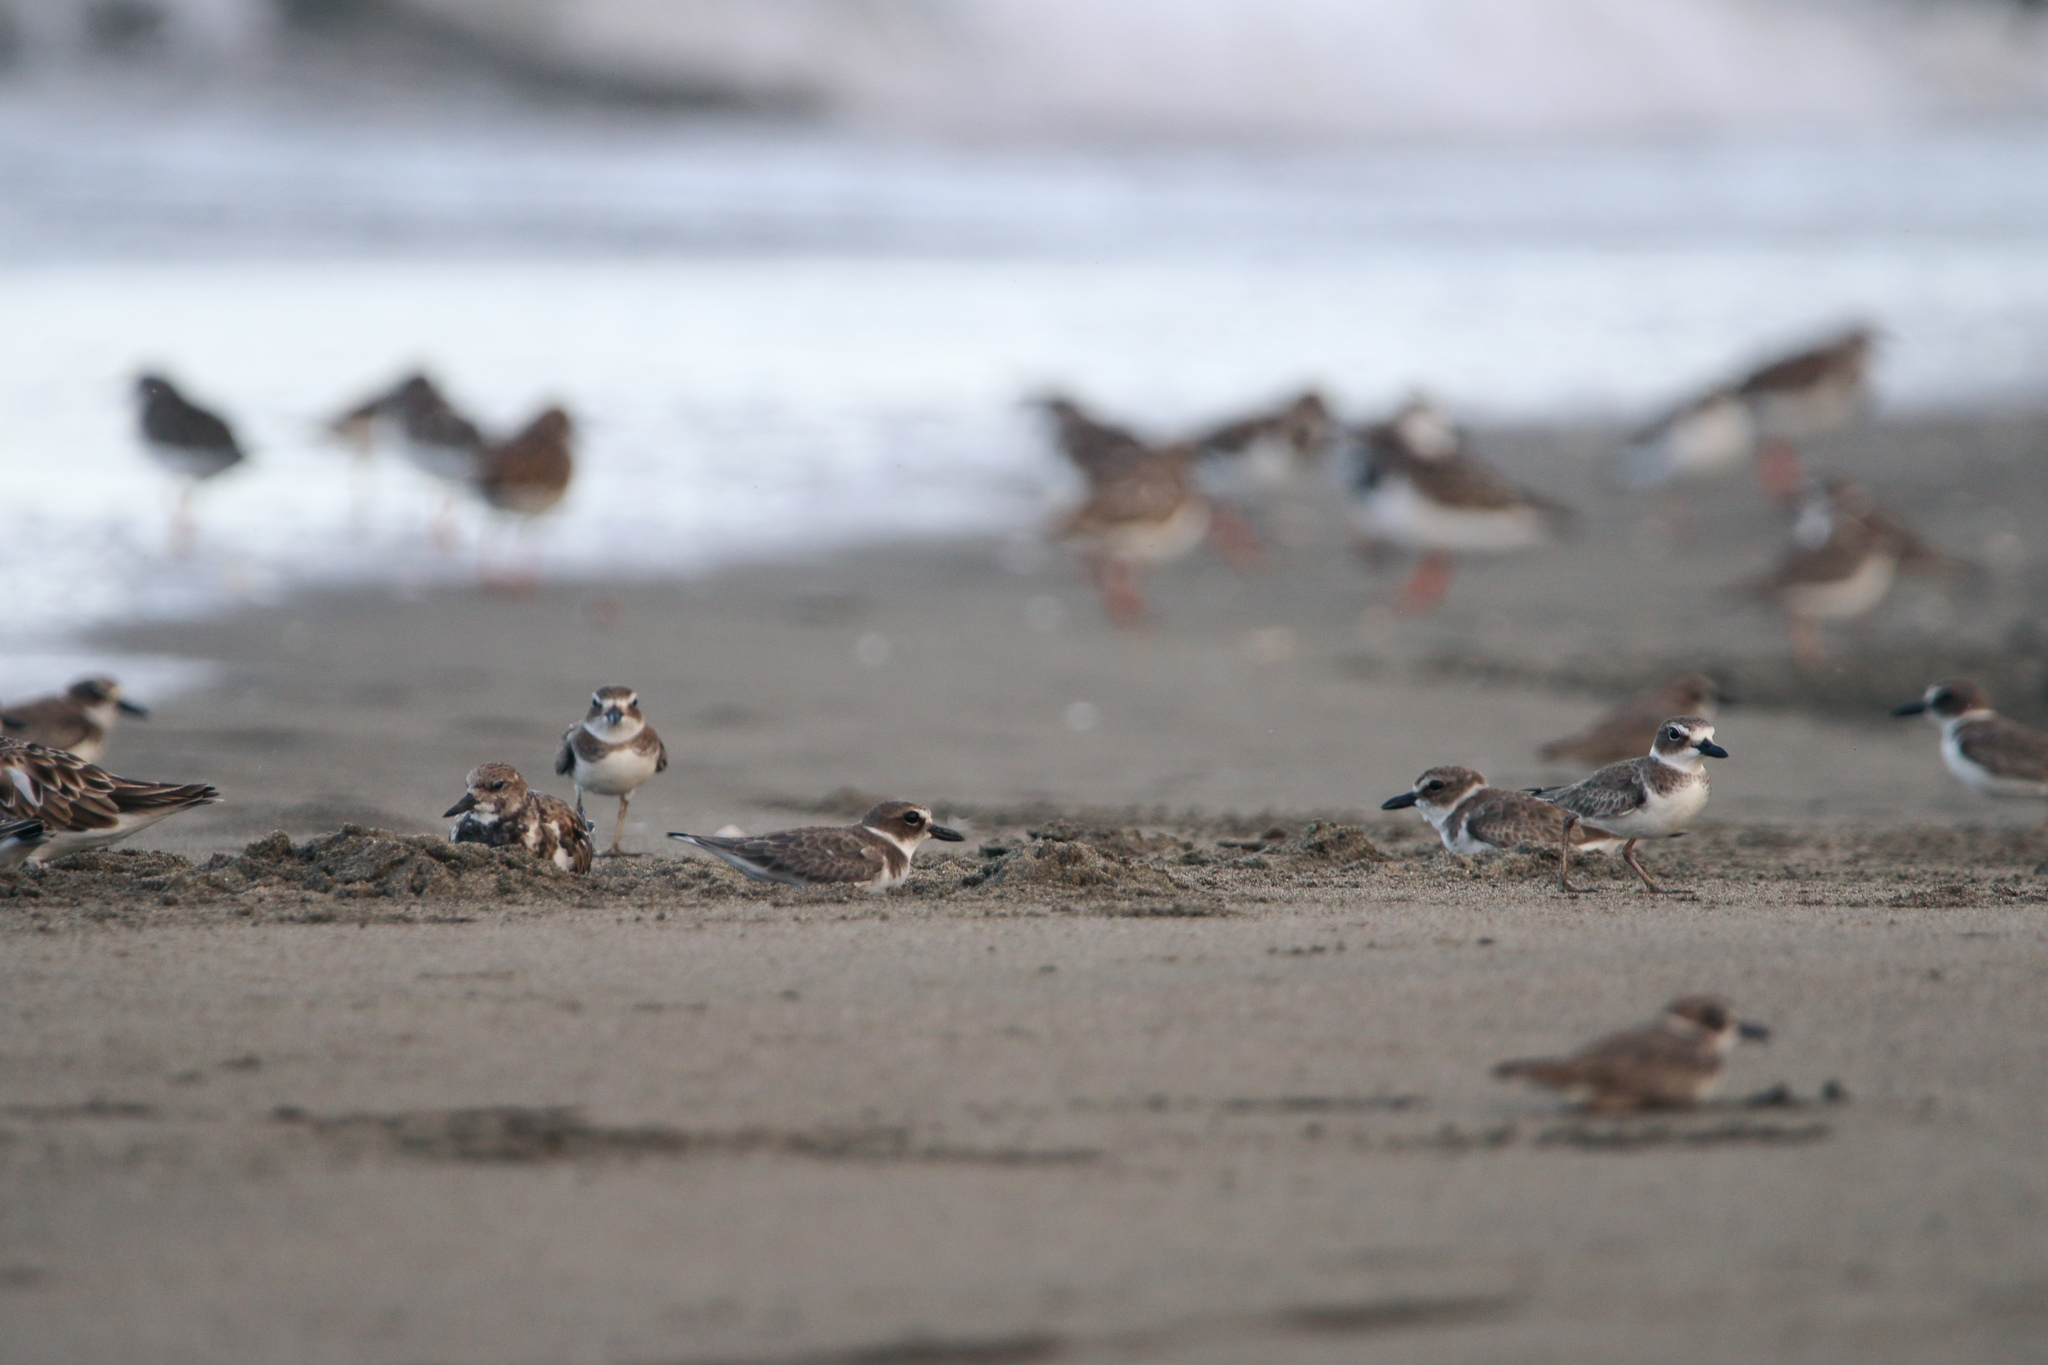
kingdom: Animalia
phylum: Chordata
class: Aves
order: Charadriiformes
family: Charadriidae
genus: Anarhynchus
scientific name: Anarhynchus
